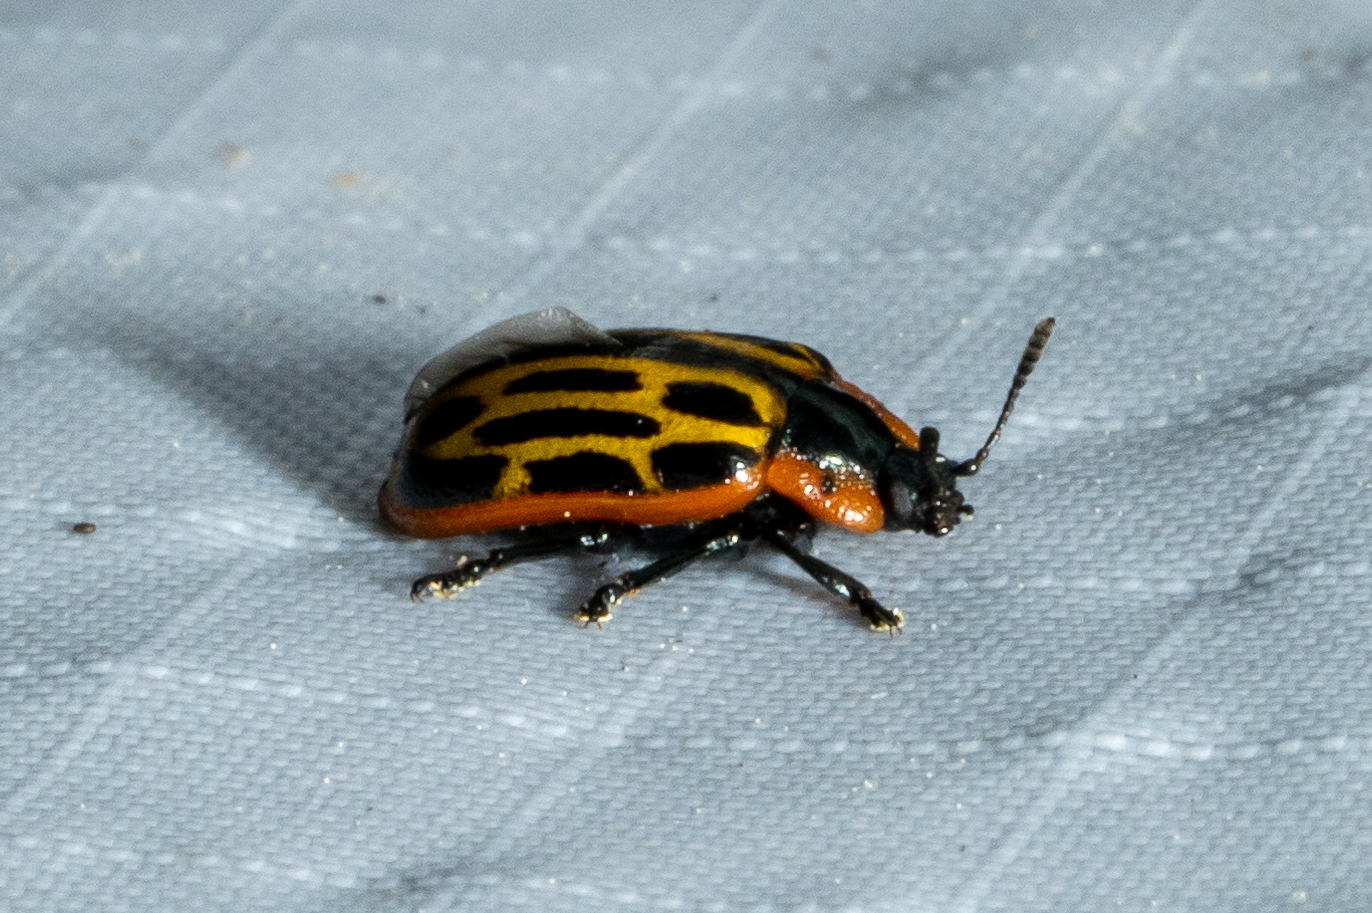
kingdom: Animalia
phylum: Arthropoda
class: Insecta
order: Coleoptera
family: Chrysomelidae
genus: Aethiopocassis
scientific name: Aethiopocassis scripta
